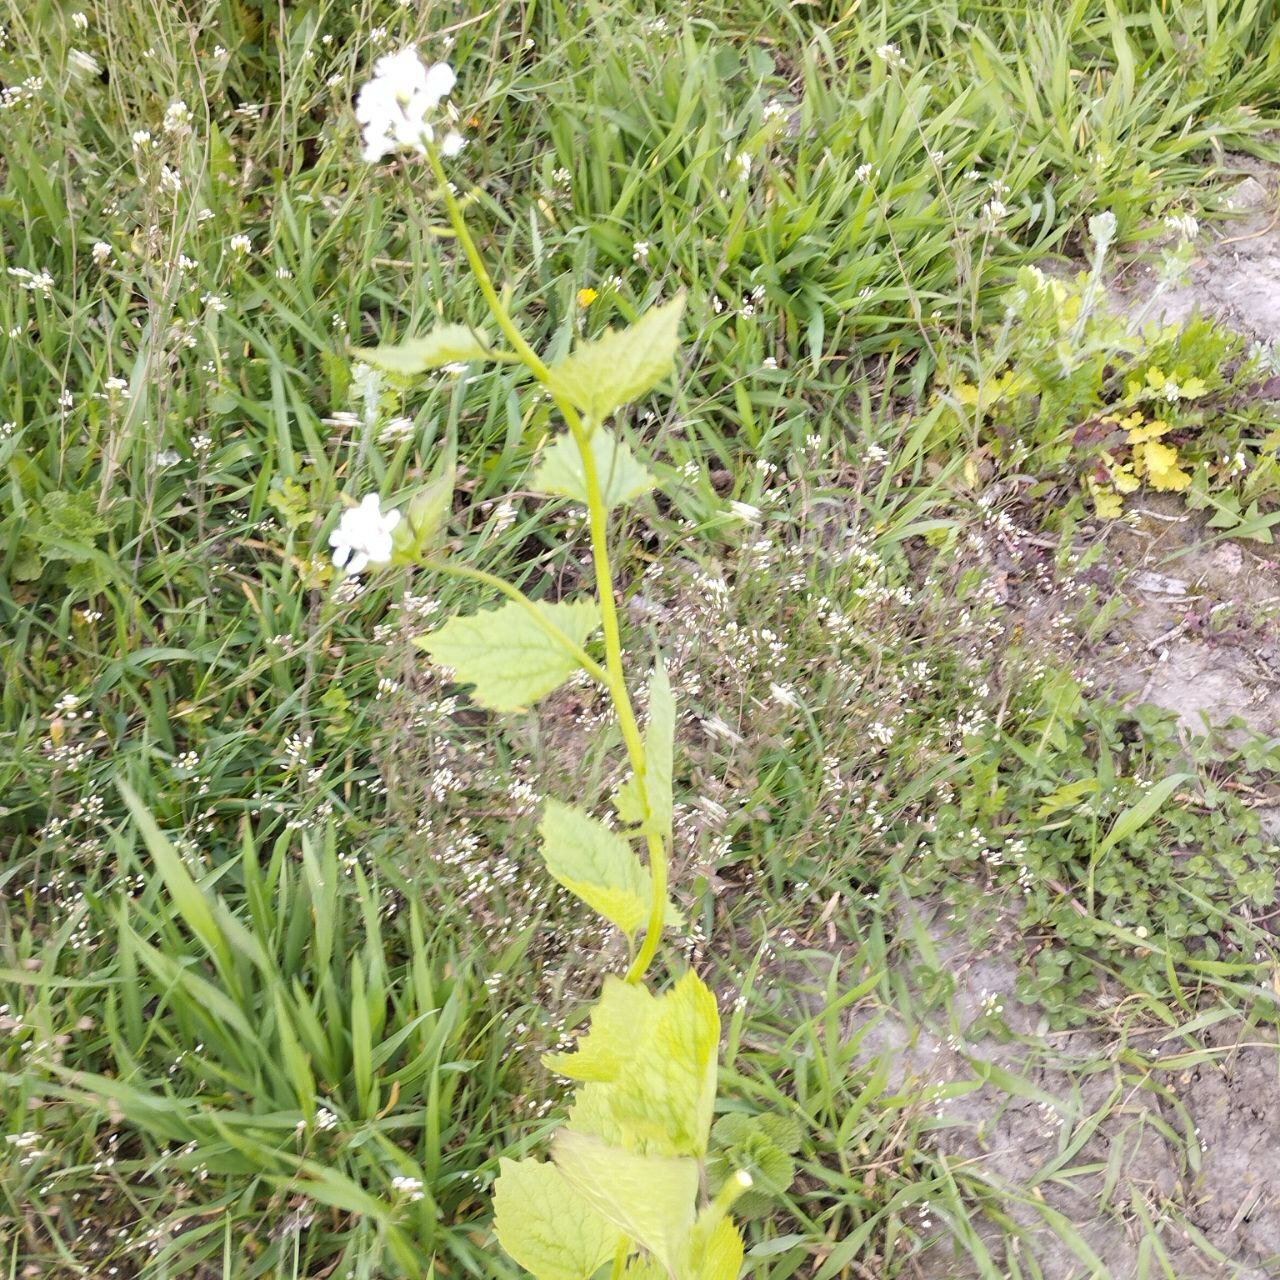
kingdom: Plantae
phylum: Tracheophyta
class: Magnoliopsida
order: Brassicales
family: Brassicaceae
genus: Alliaria
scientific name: Alliaria petiolata
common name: Garlic mustard
